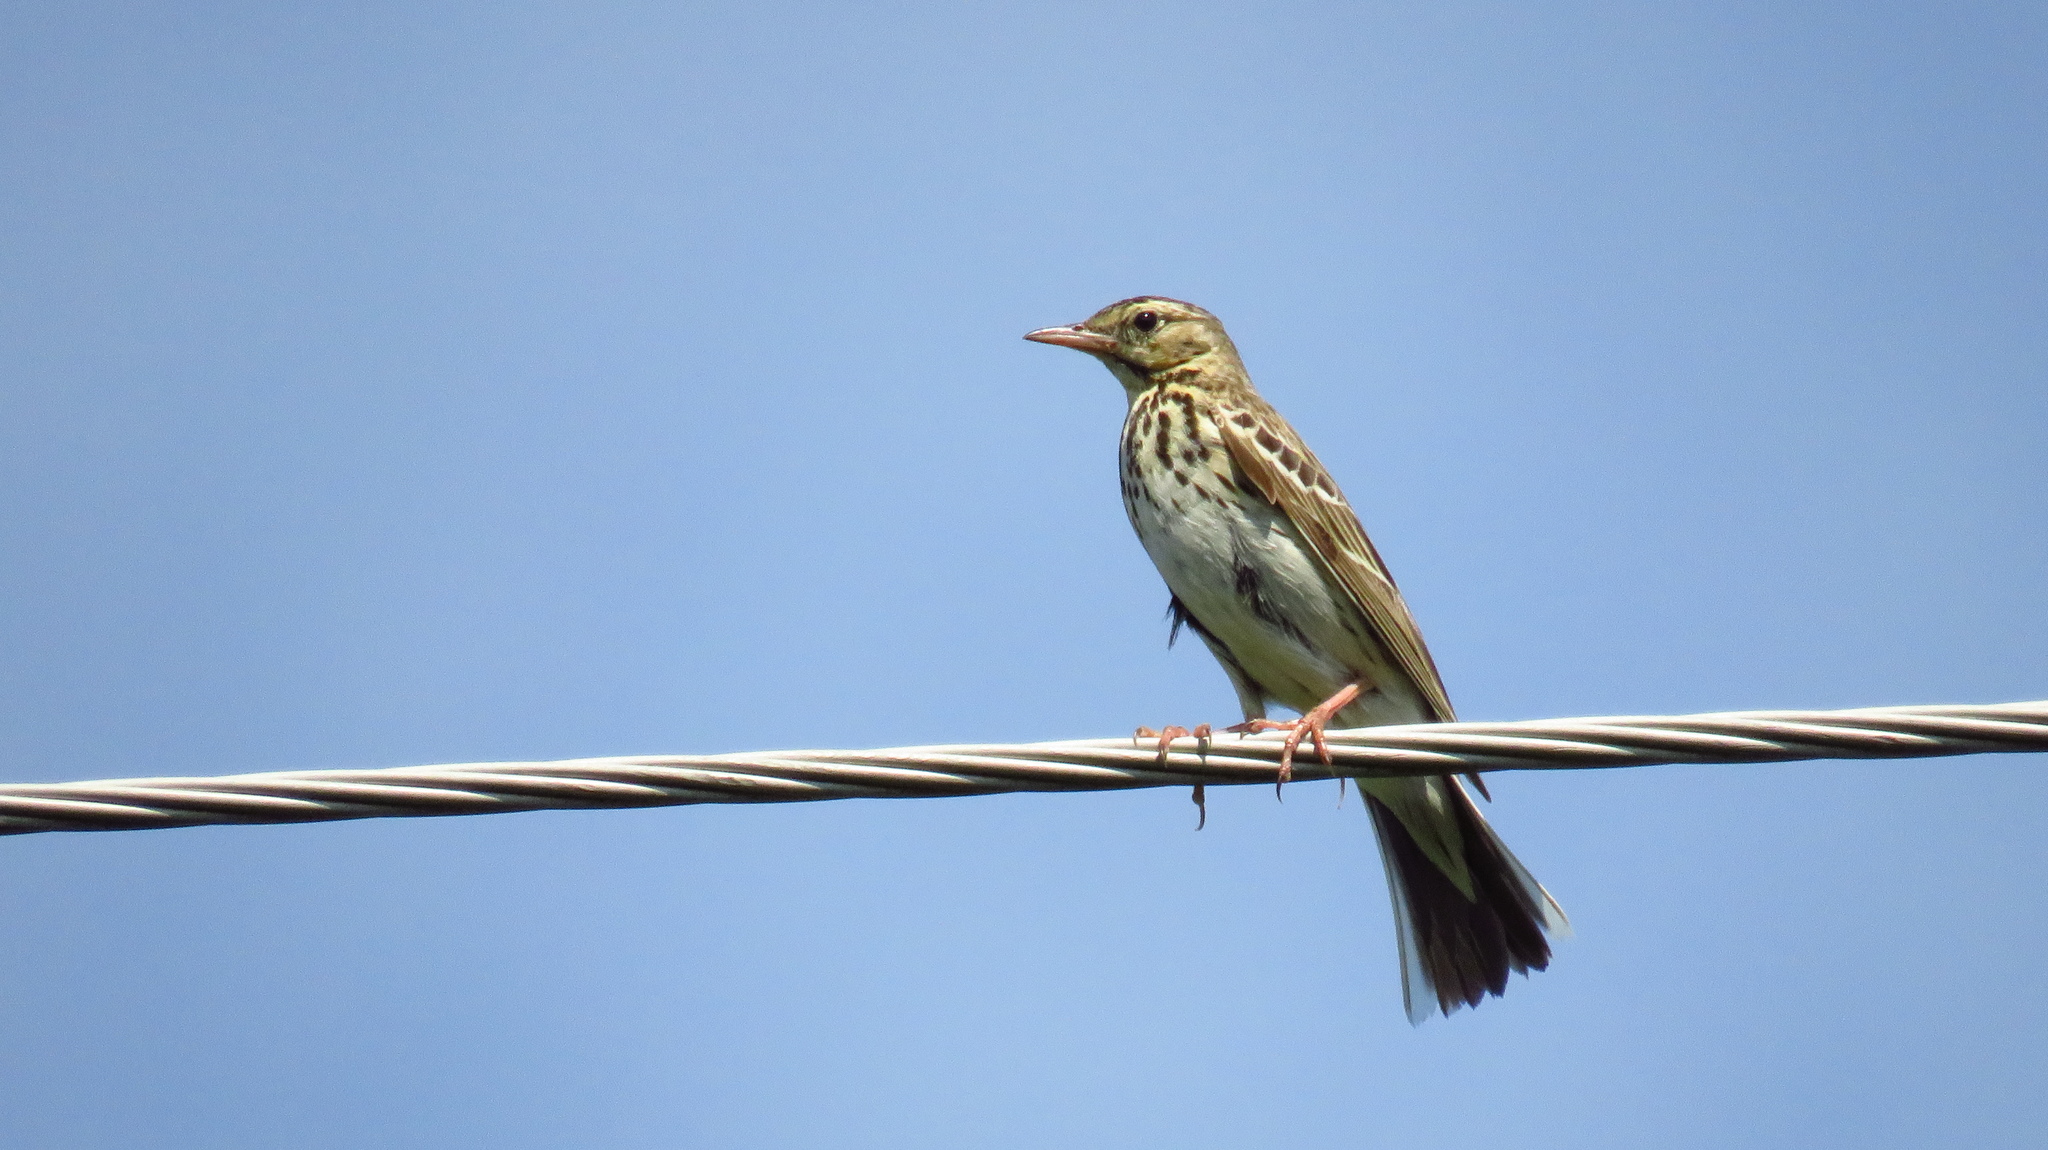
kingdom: Animalia
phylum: Chordata
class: Aves
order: Passeriformes
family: Motacillidae
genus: Anthus
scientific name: Anthus trivialis
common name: Tree pipit
